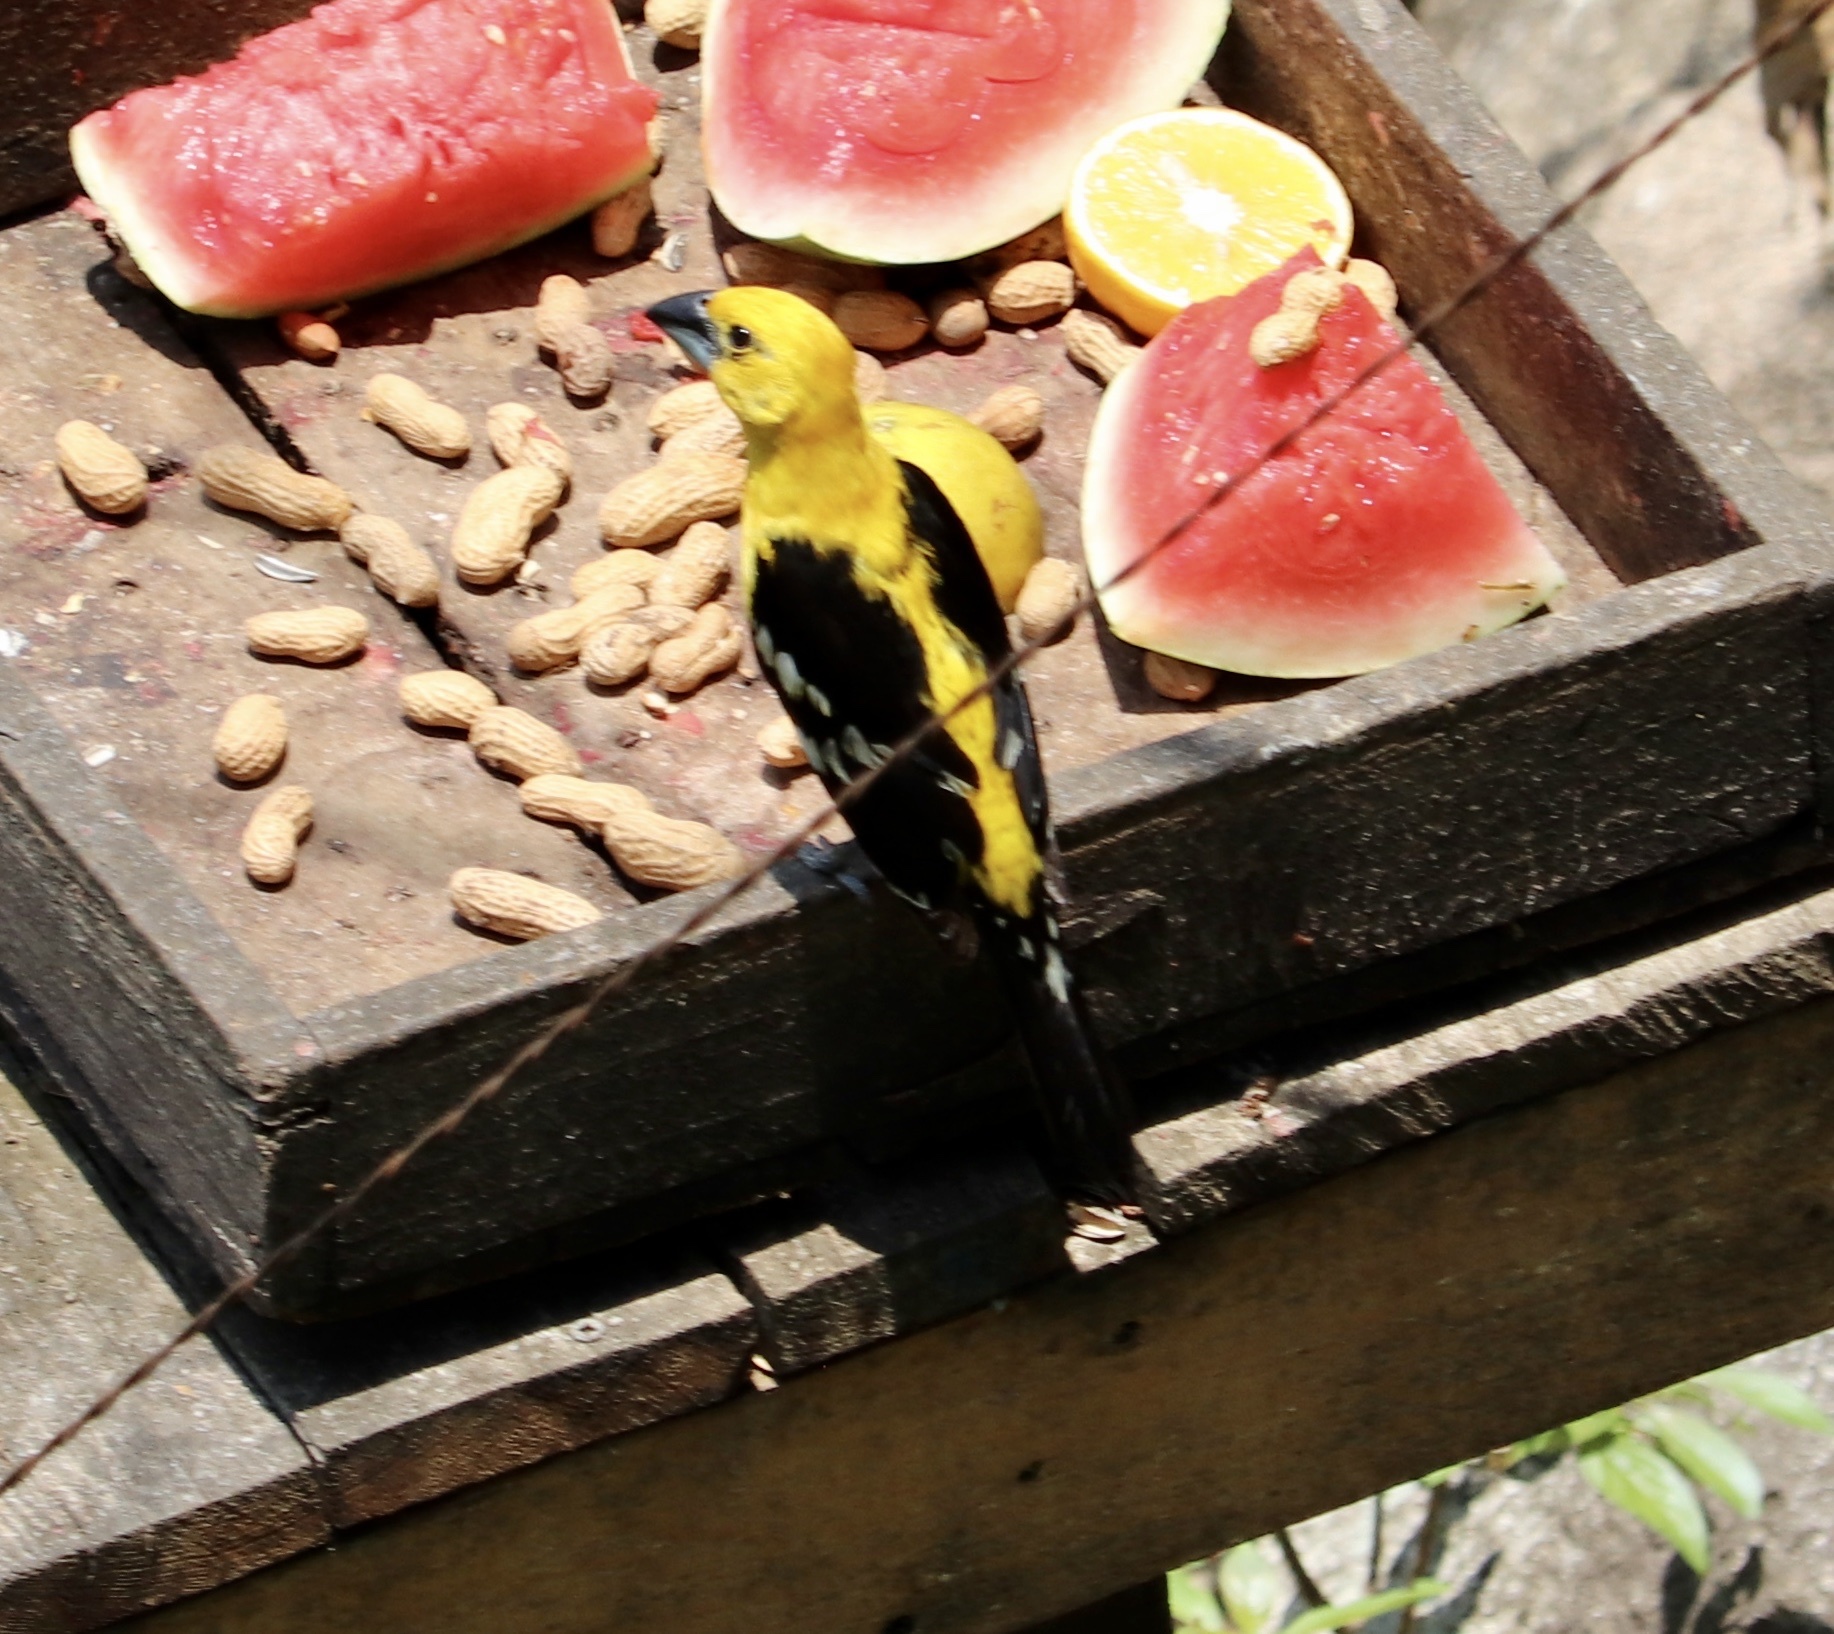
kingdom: Animalia
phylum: Chordata
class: Aves
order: Passeriformes
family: Cardinalidae
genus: Pheucticus
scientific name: Pheucticus chrysopeplus
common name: Yellow grosbeak
